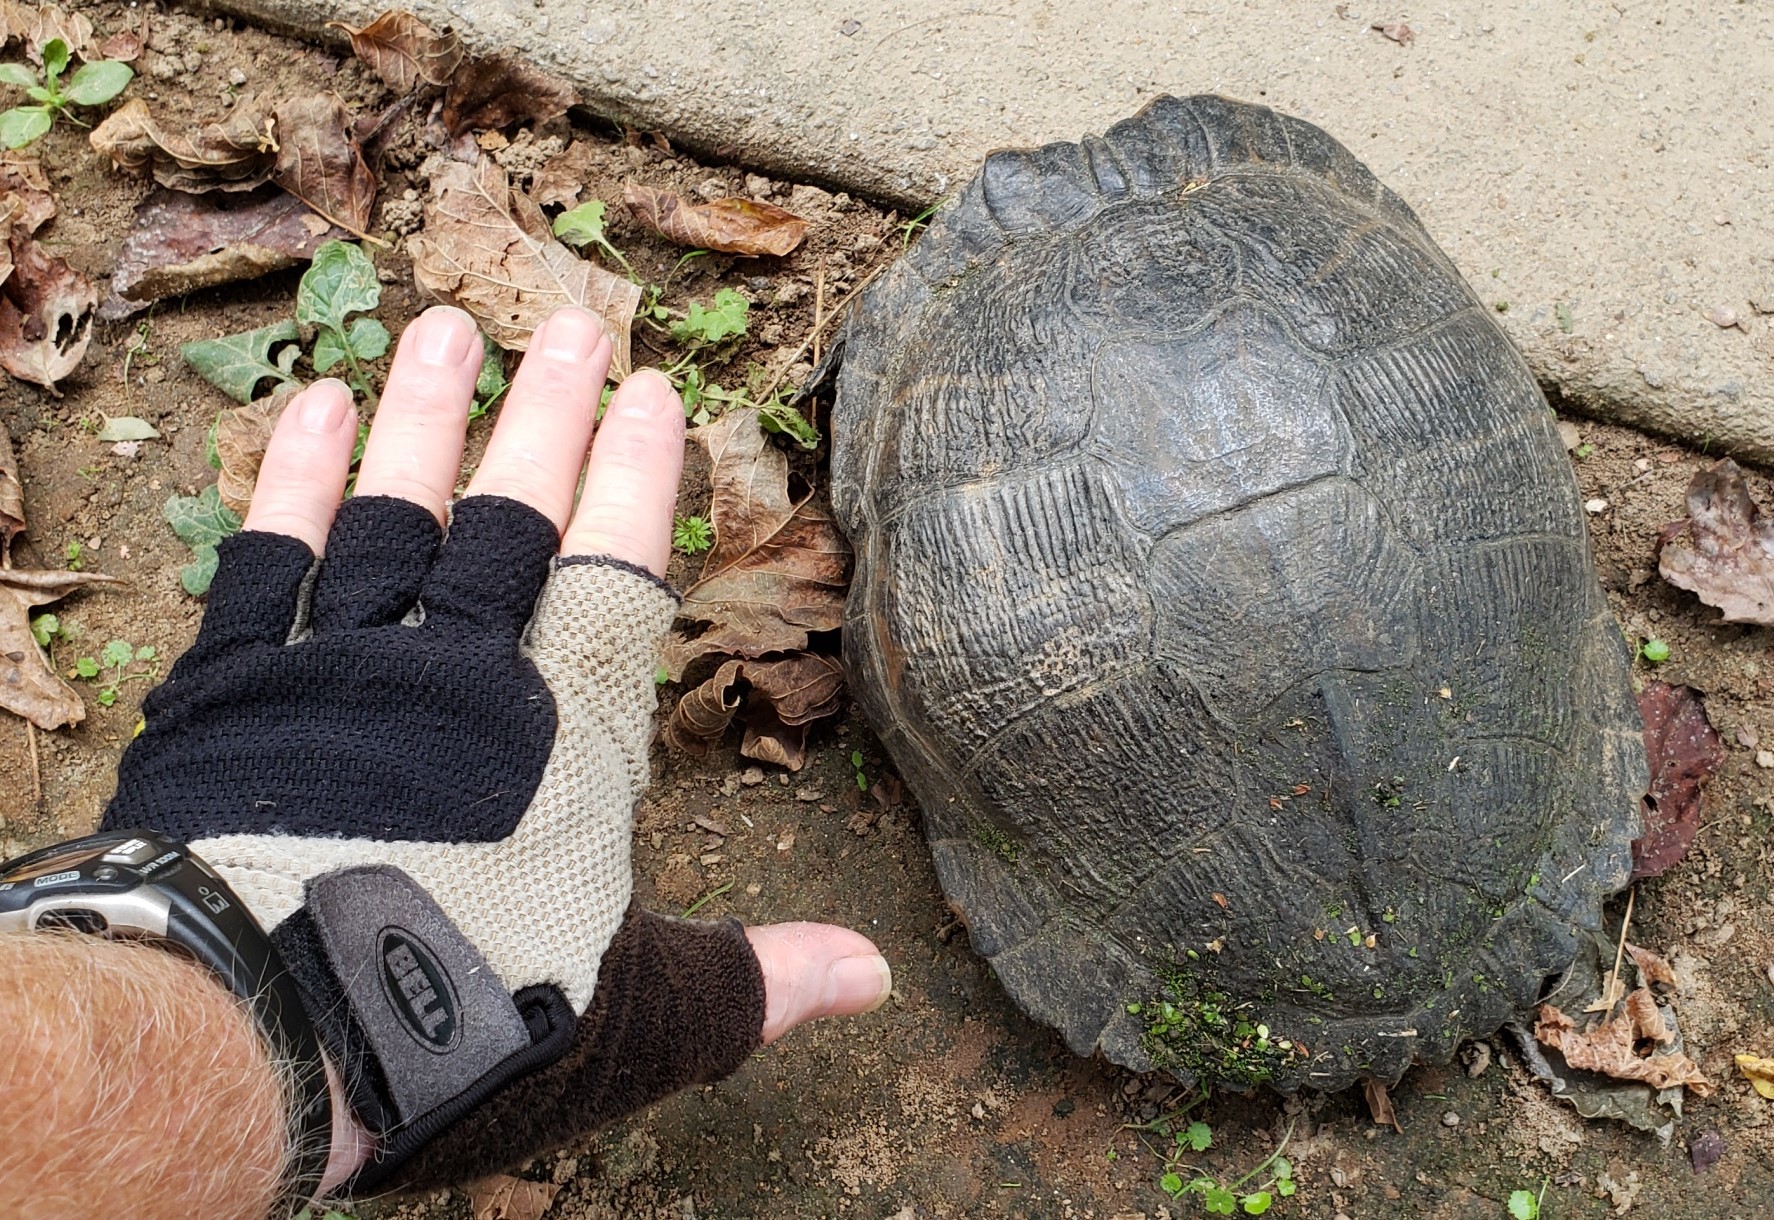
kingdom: Animalia
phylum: Chordata
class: Testudines
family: Emydidae
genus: Trachemys
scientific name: Trachemys scripta
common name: Slider
